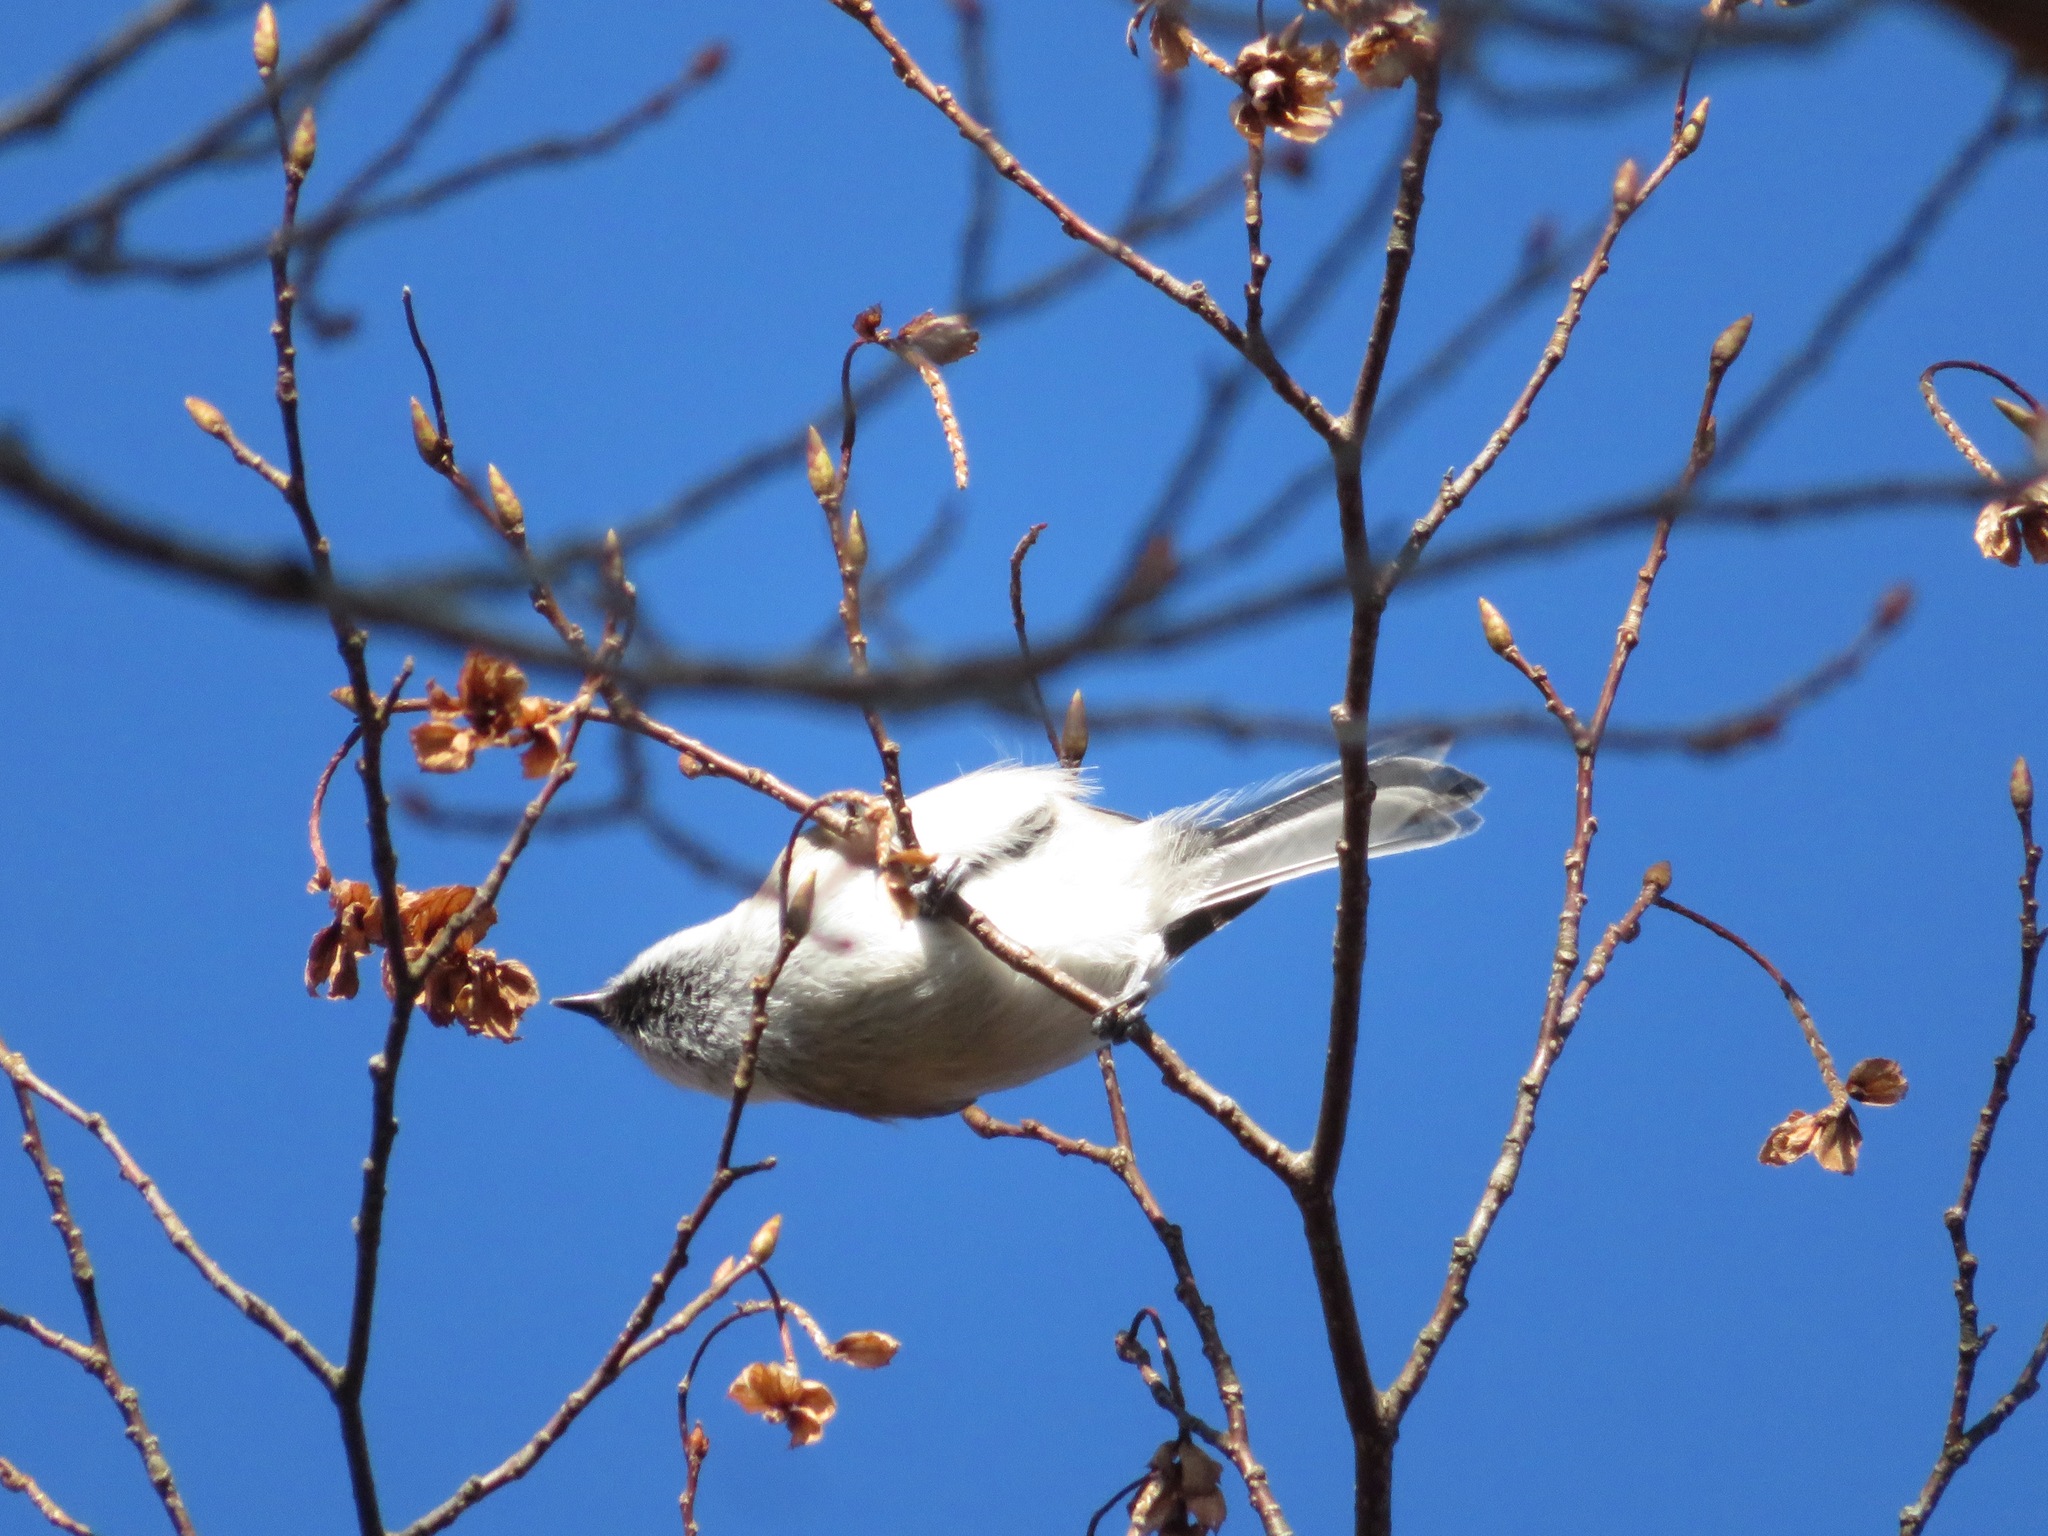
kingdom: Animalia
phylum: Chordata
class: Aves
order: Passeriformes
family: Paridae
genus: Poecile
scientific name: Poecile montanus
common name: Willow tit
